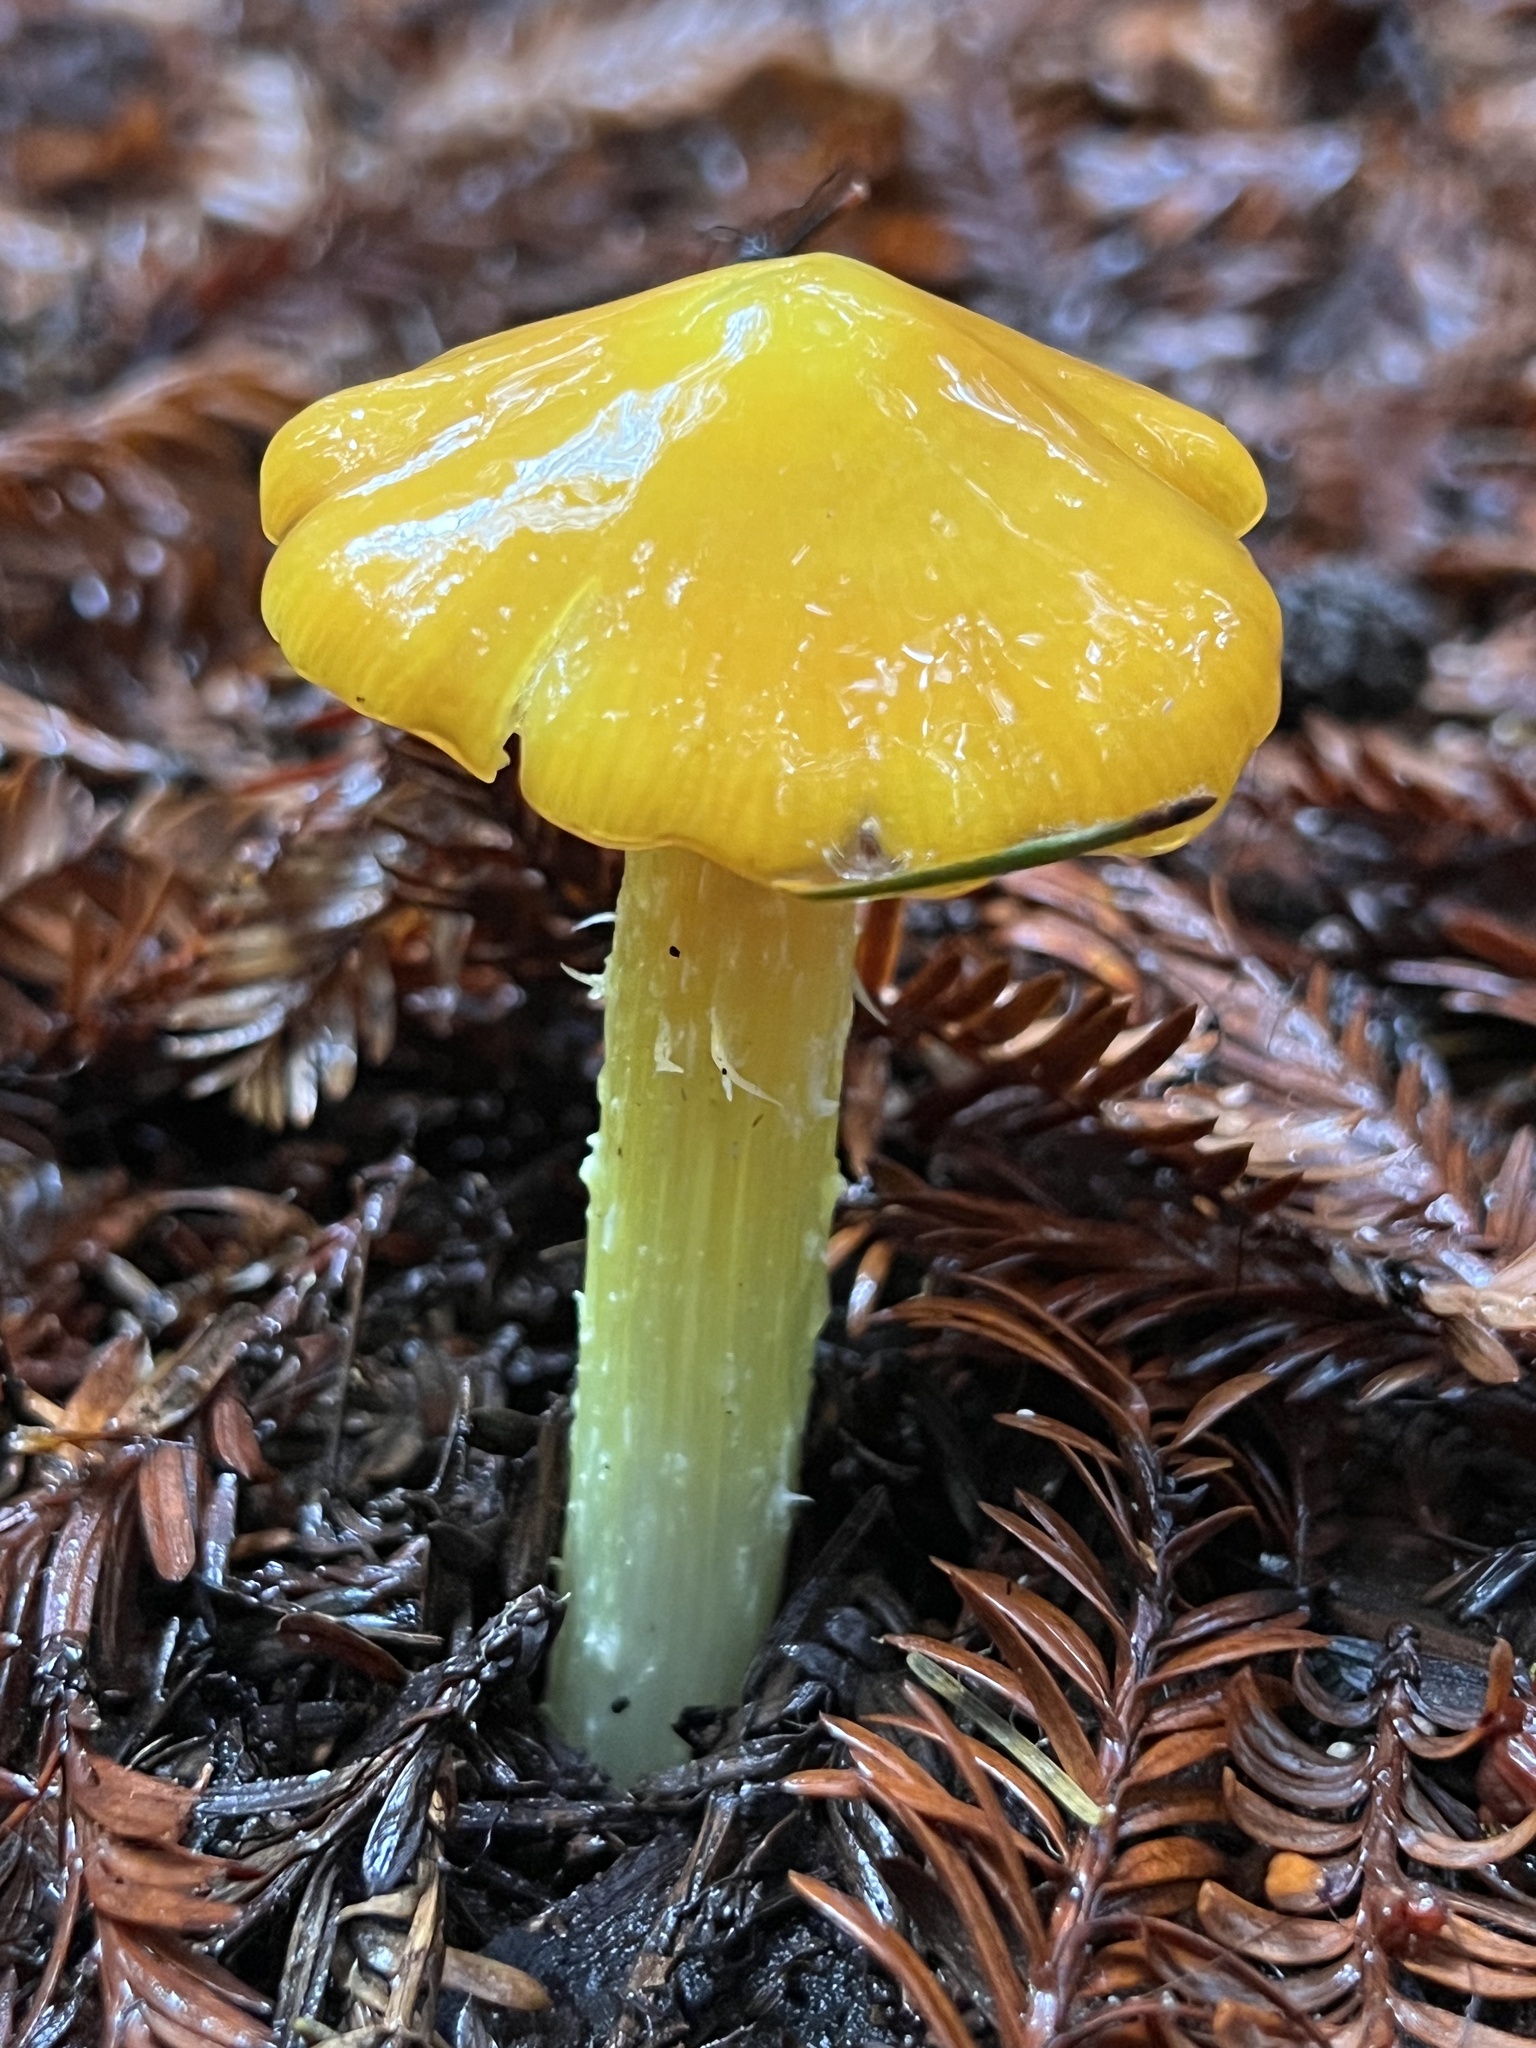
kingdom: Fungi
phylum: Basidiomycota
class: Agaricomycetes
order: Agaricales
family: Hygrophoraceae
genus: Hygrocybe
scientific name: Hygrocybe acutoconica
